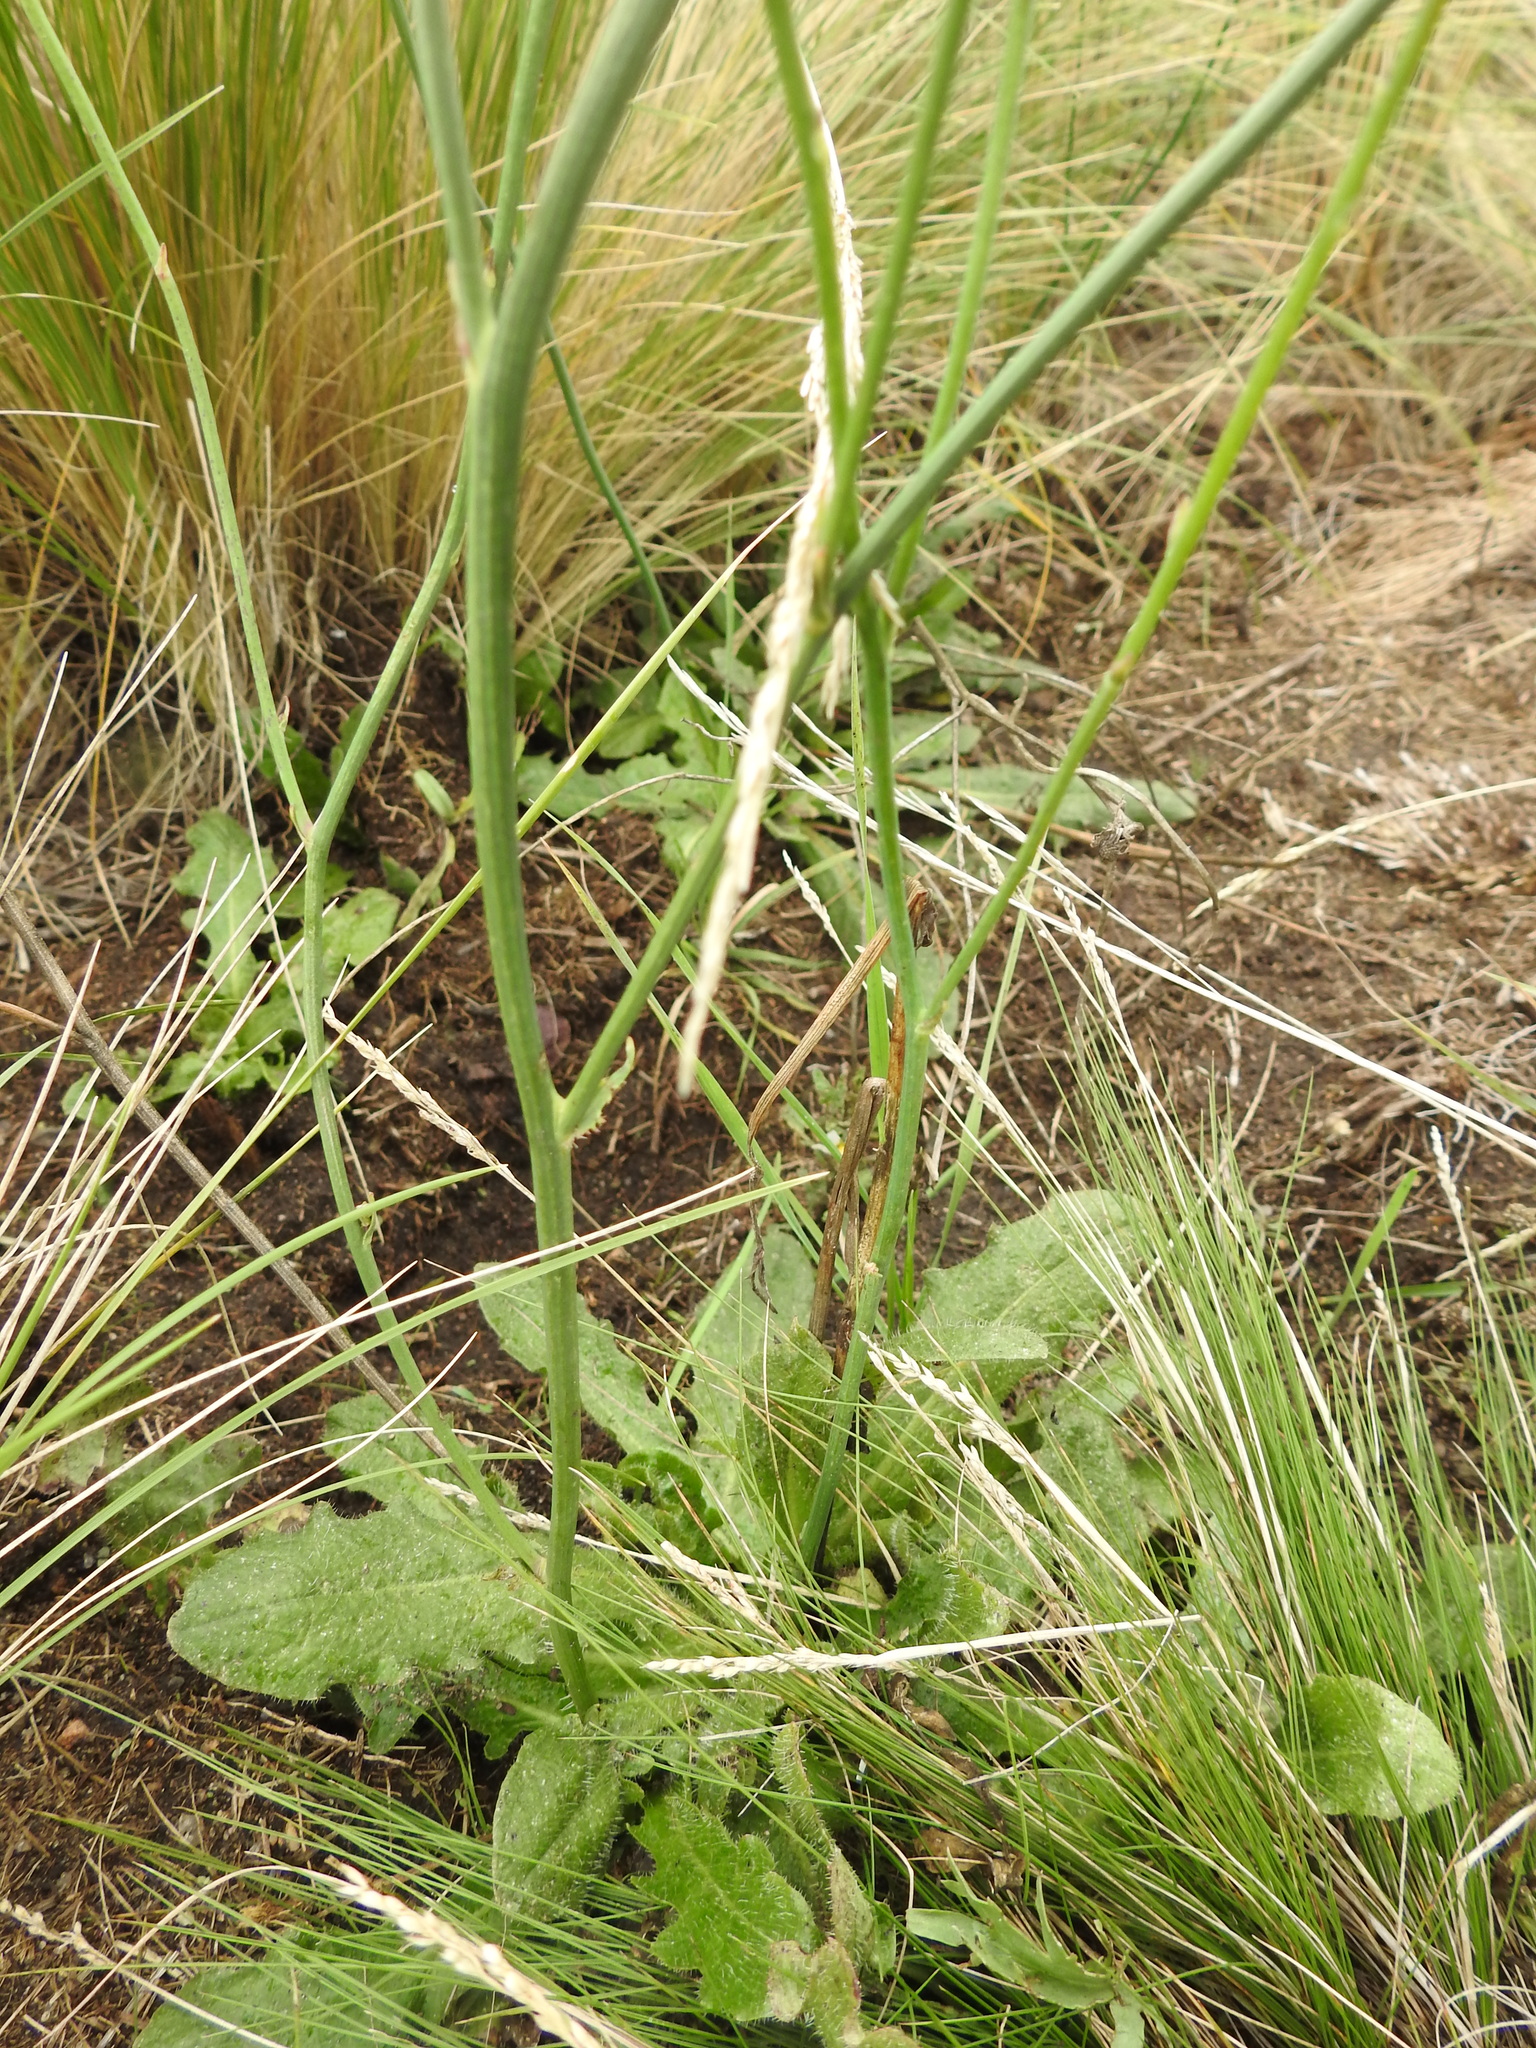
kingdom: Plantae
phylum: Tracheophyta
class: Magnoliopsida
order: Asterales
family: Asteraceae
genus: Hypochaeris
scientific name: Hypochaeris radicata
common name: Flatweed
